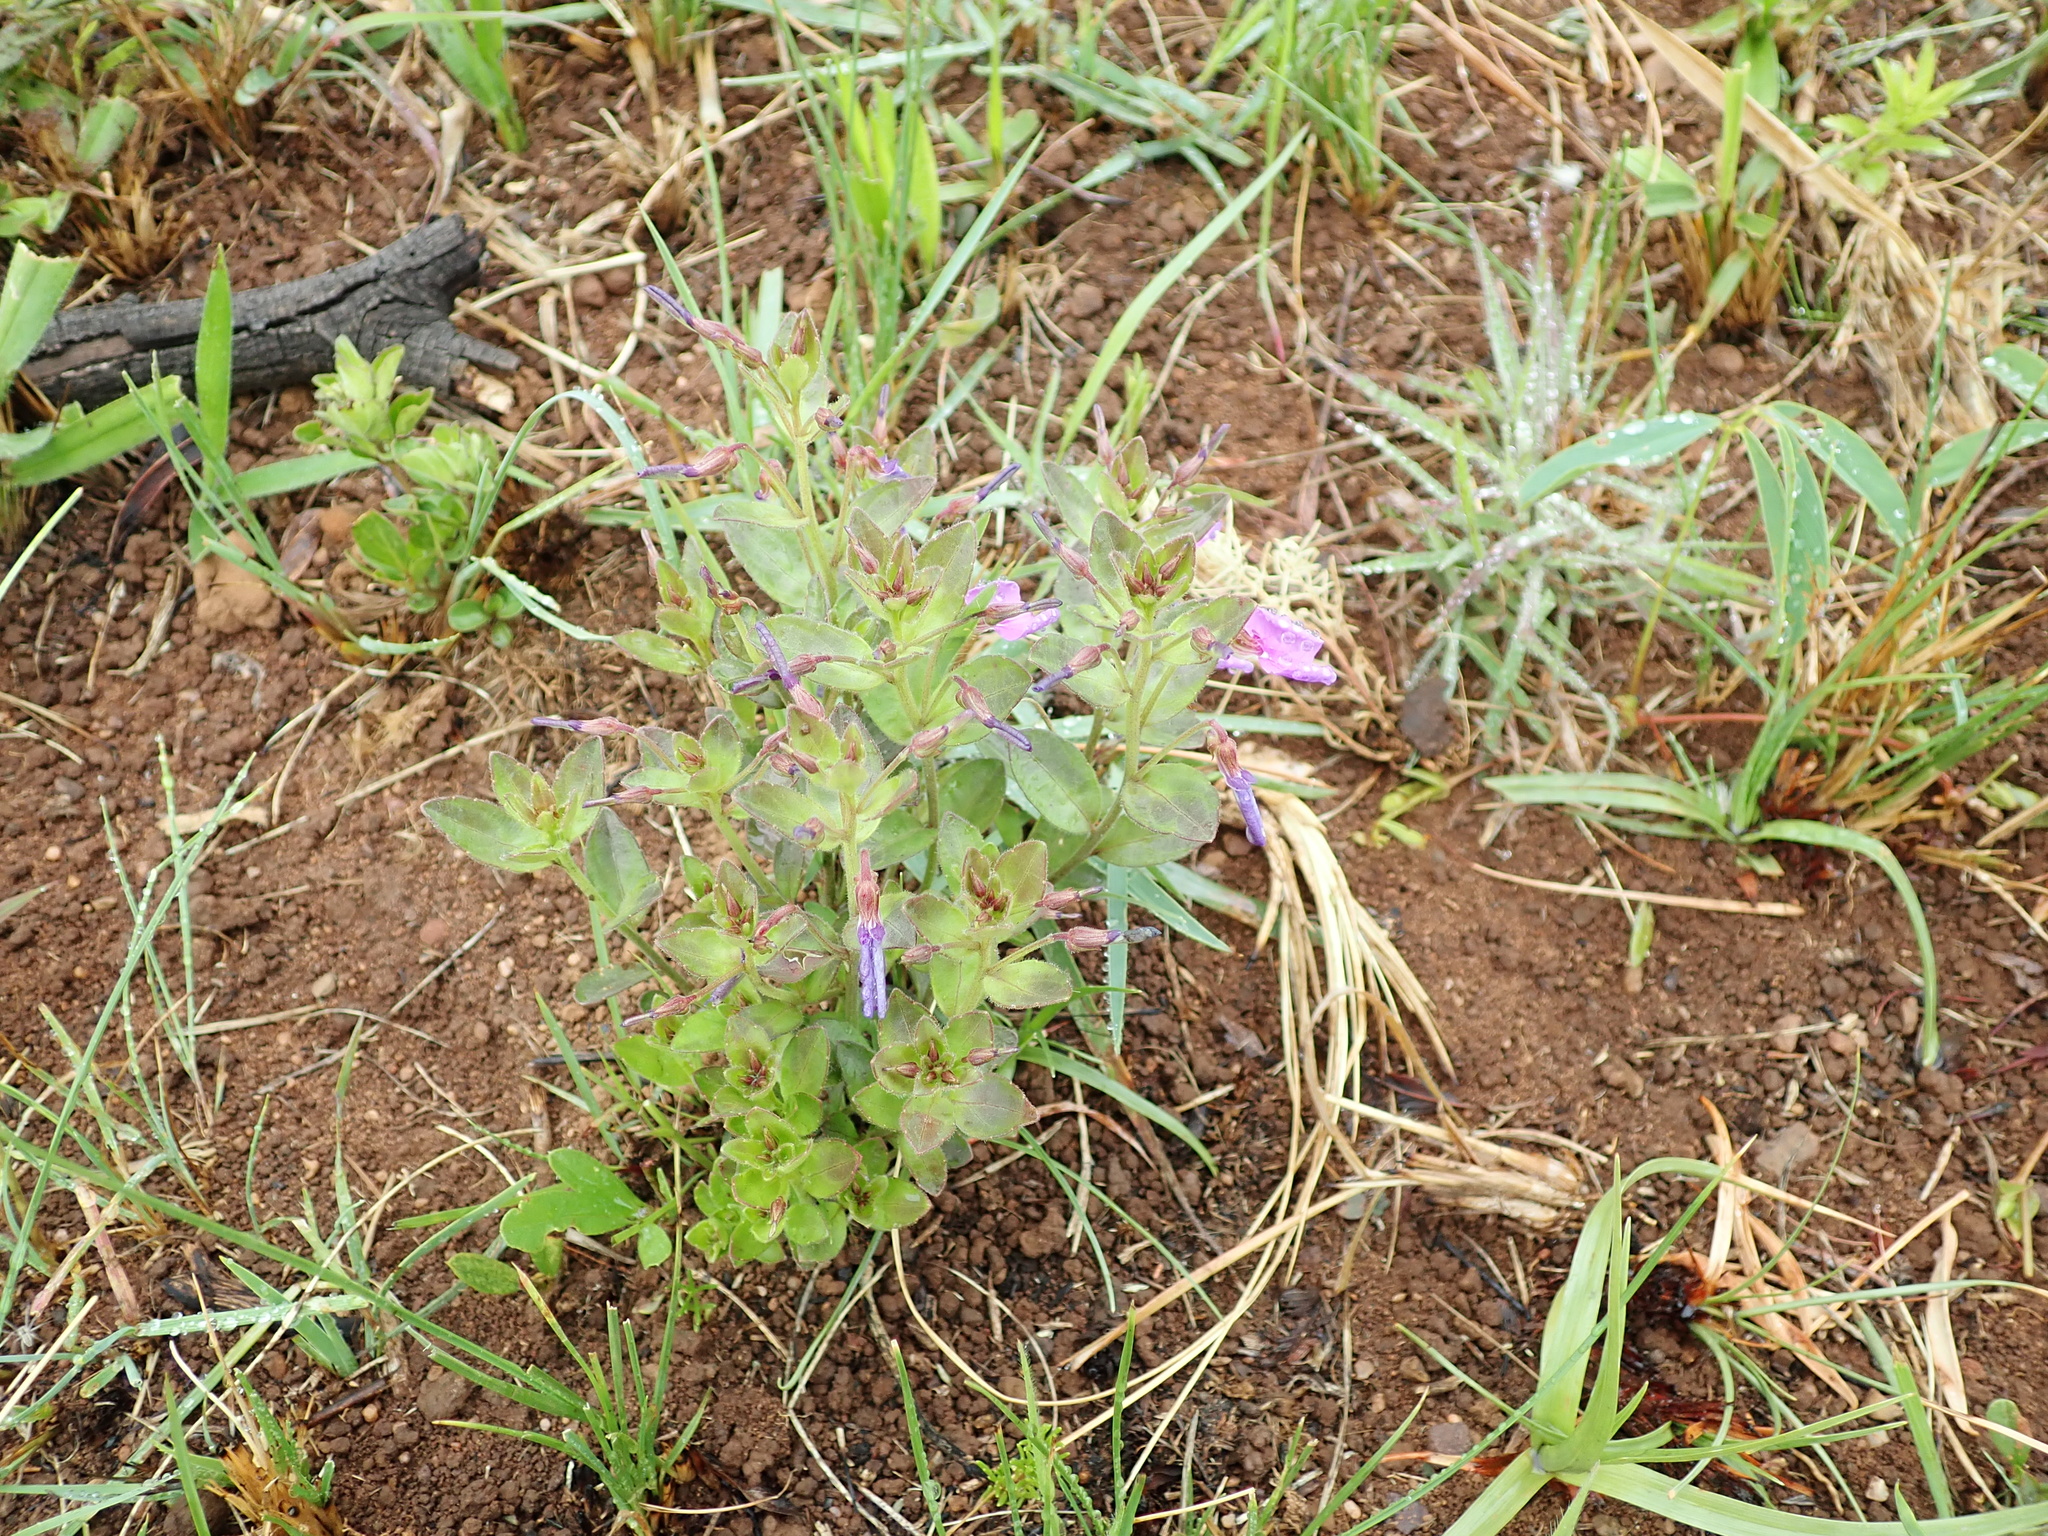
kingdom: Plantae
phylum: Tracheophyta
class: Magnoliopsida
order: Malpighiales
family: Violaceae
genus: Pigea
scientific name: Pigea enneasperma
